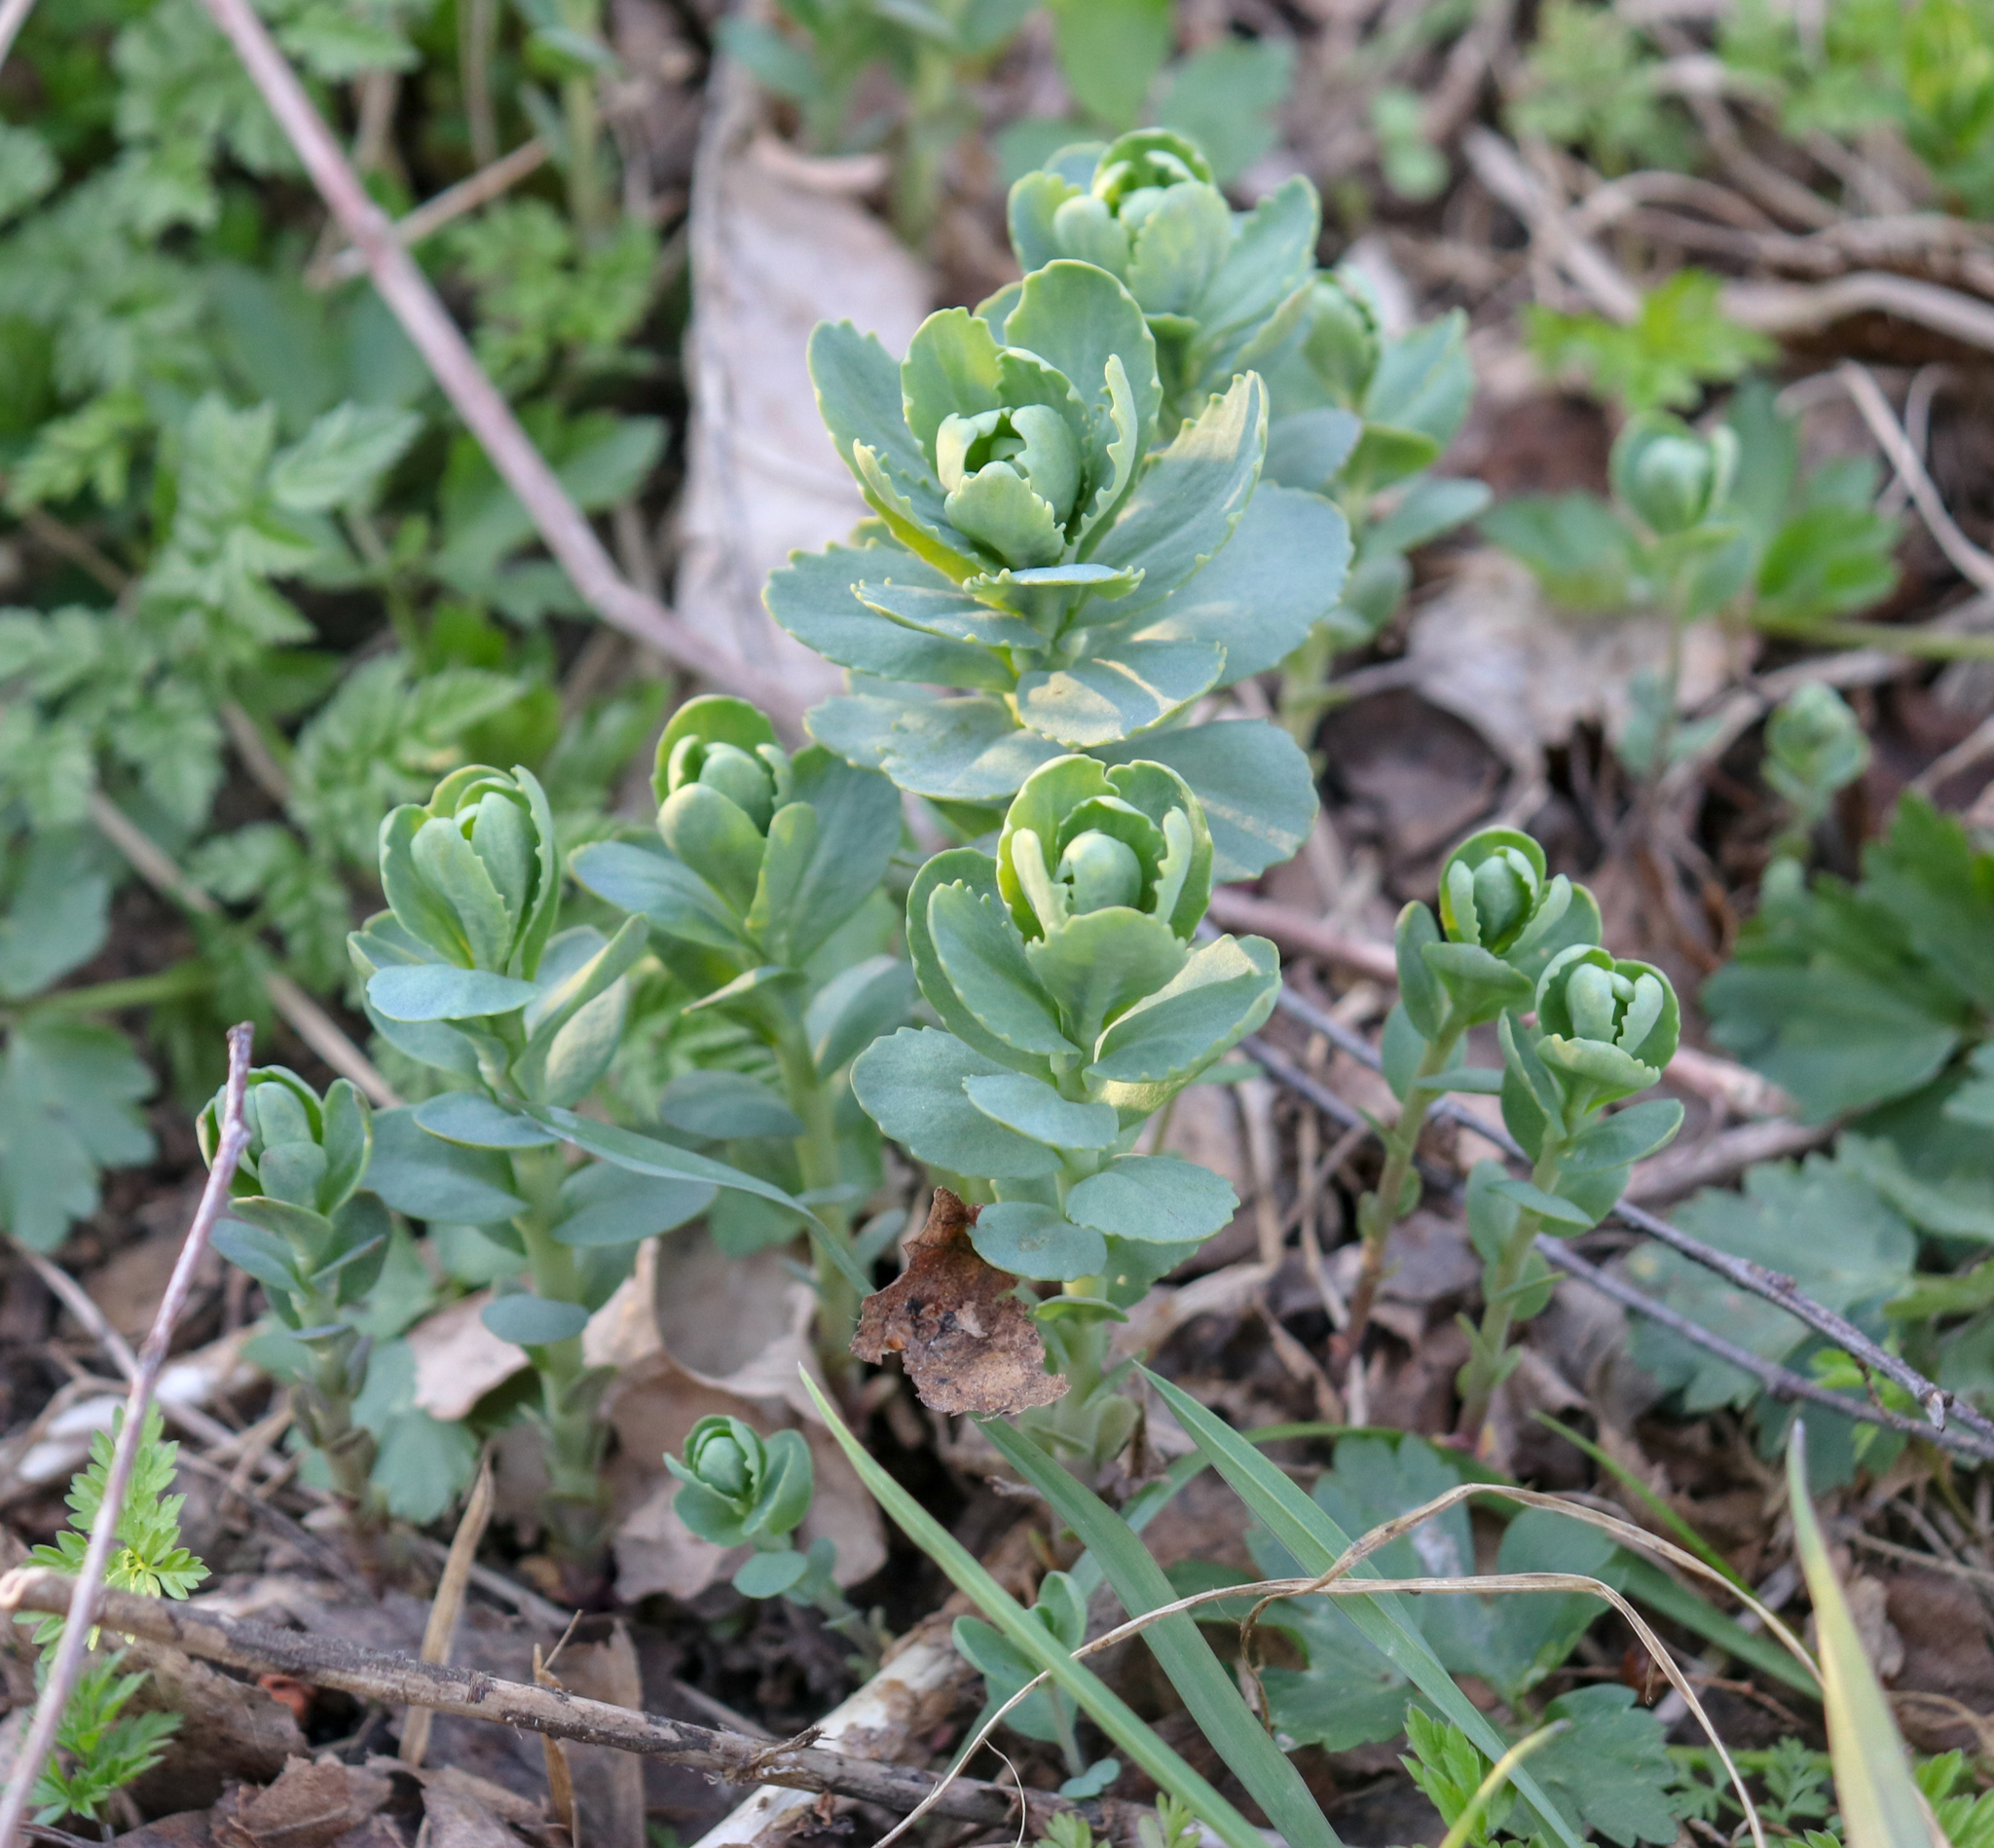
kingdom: Plantae
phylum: Tracheophyta
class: Magnoliopsida
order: Saxifragales
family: Crassulaceae
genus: Hylotelephium
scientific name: Hylotelephium telephium
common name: Live-forever
